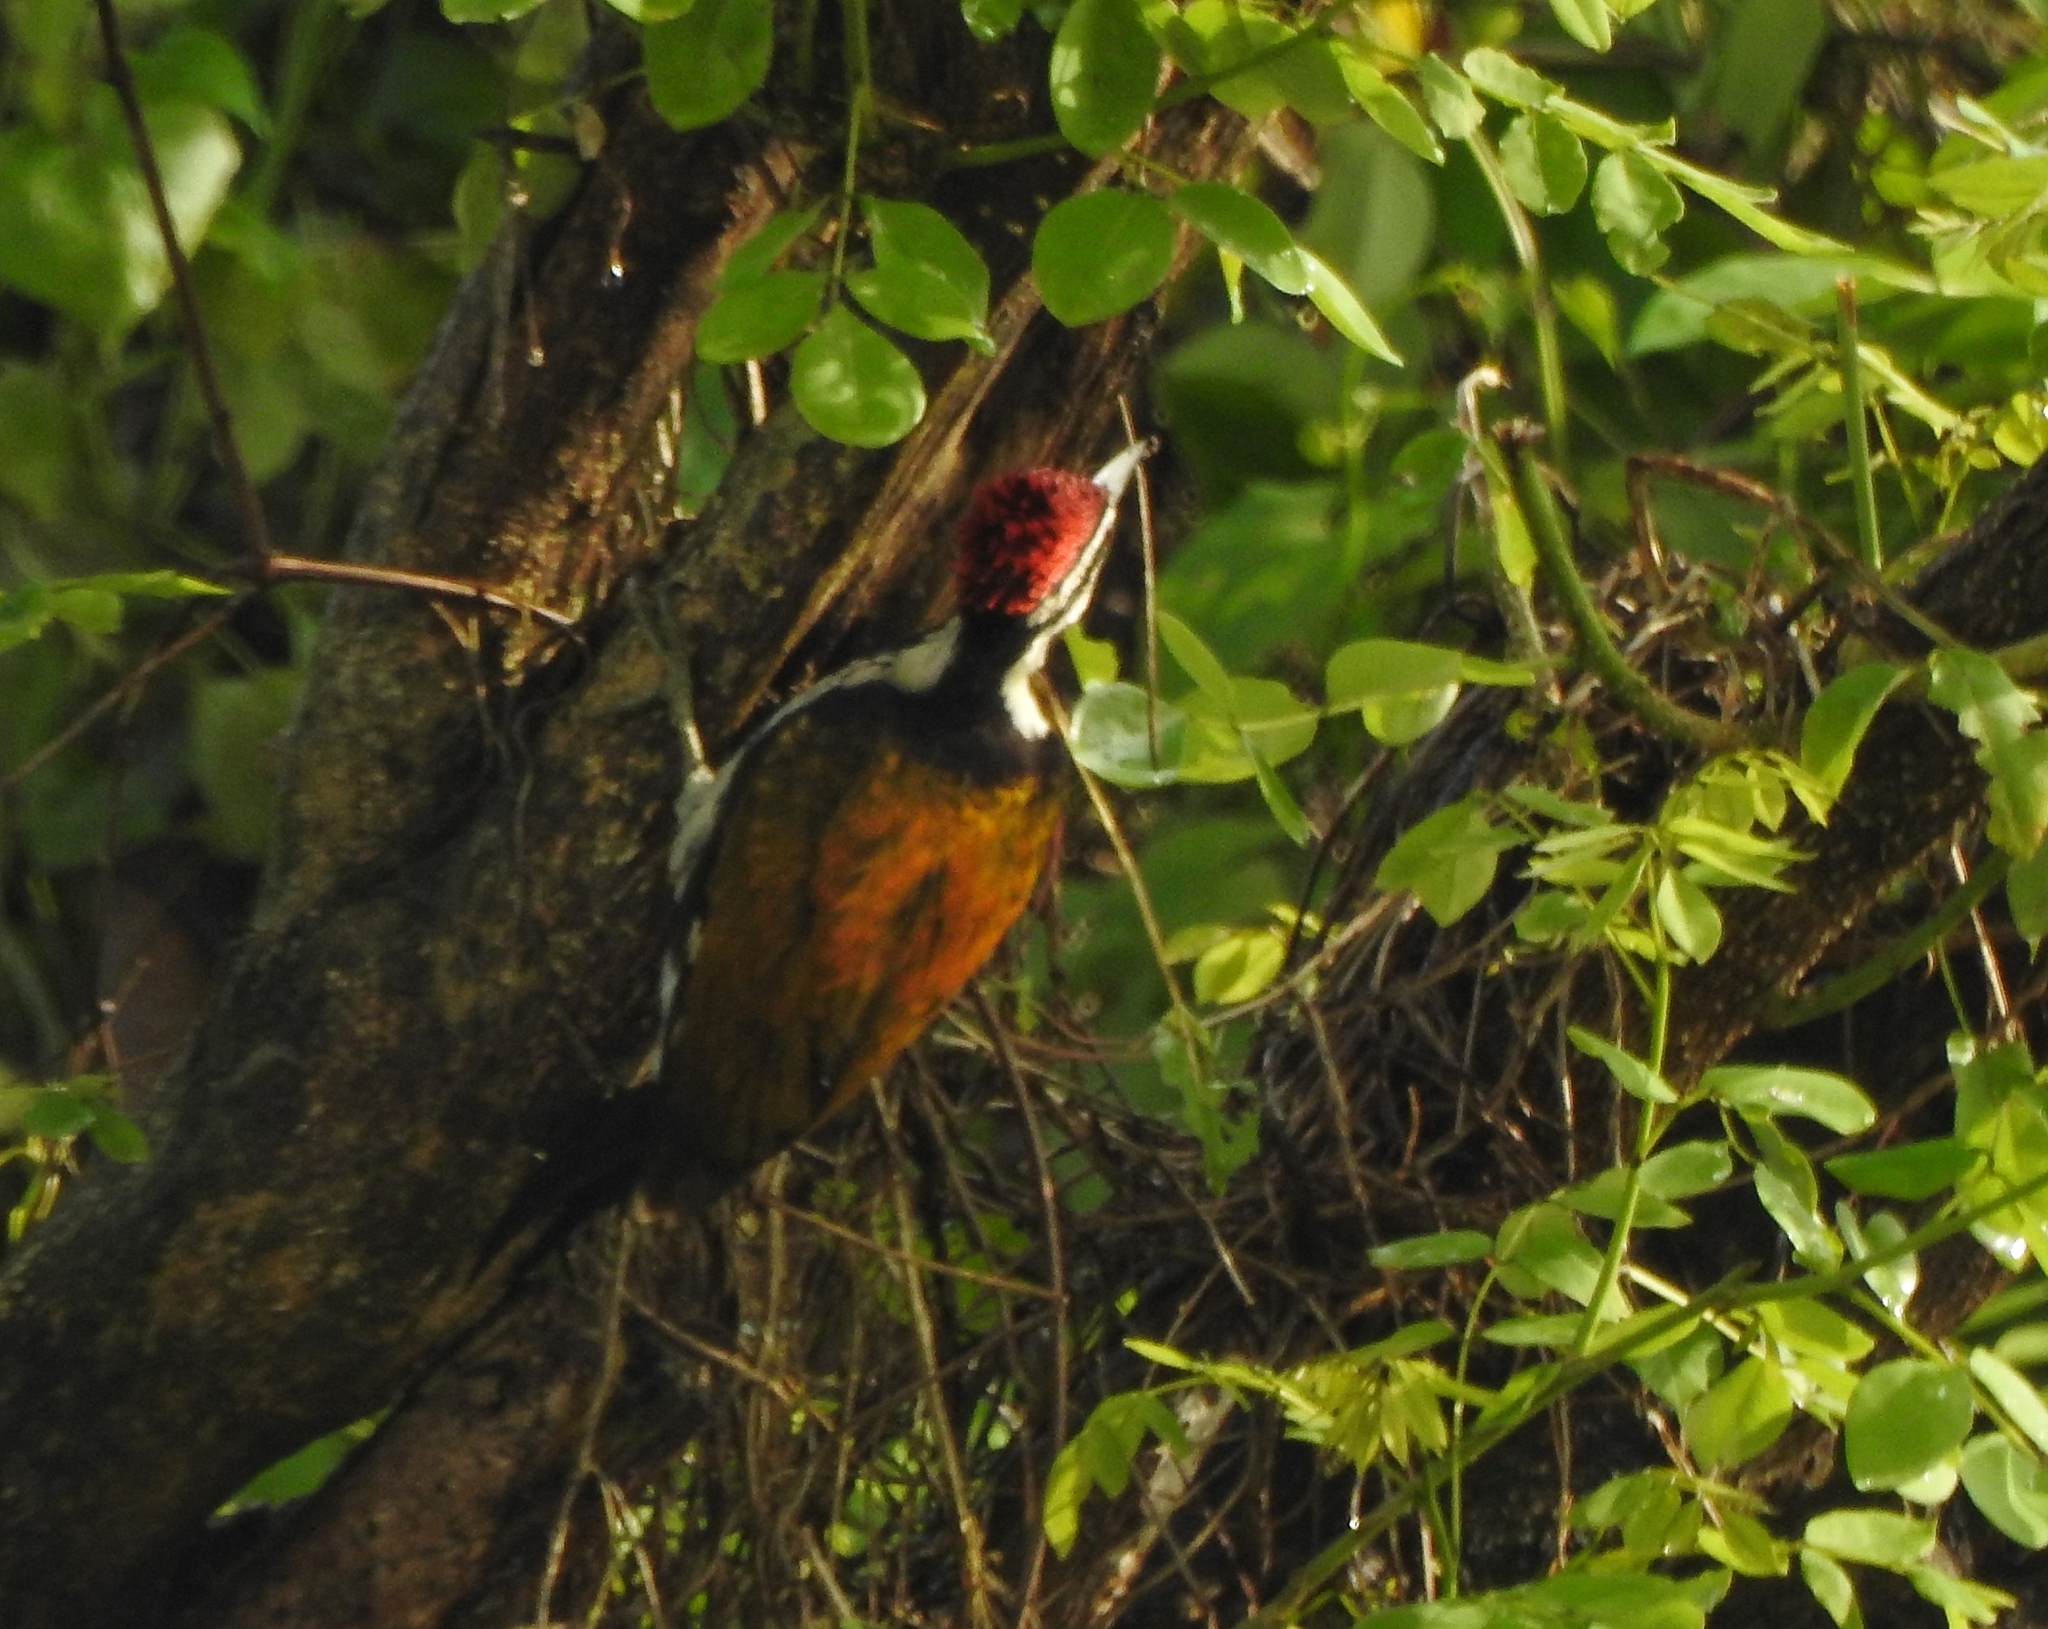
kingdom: Animalia
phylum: Chordata
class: Aves
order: Piciformes
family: Picidae
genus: Dinopium
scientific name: Dinopium benghalense
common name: Black-rumped flameback
